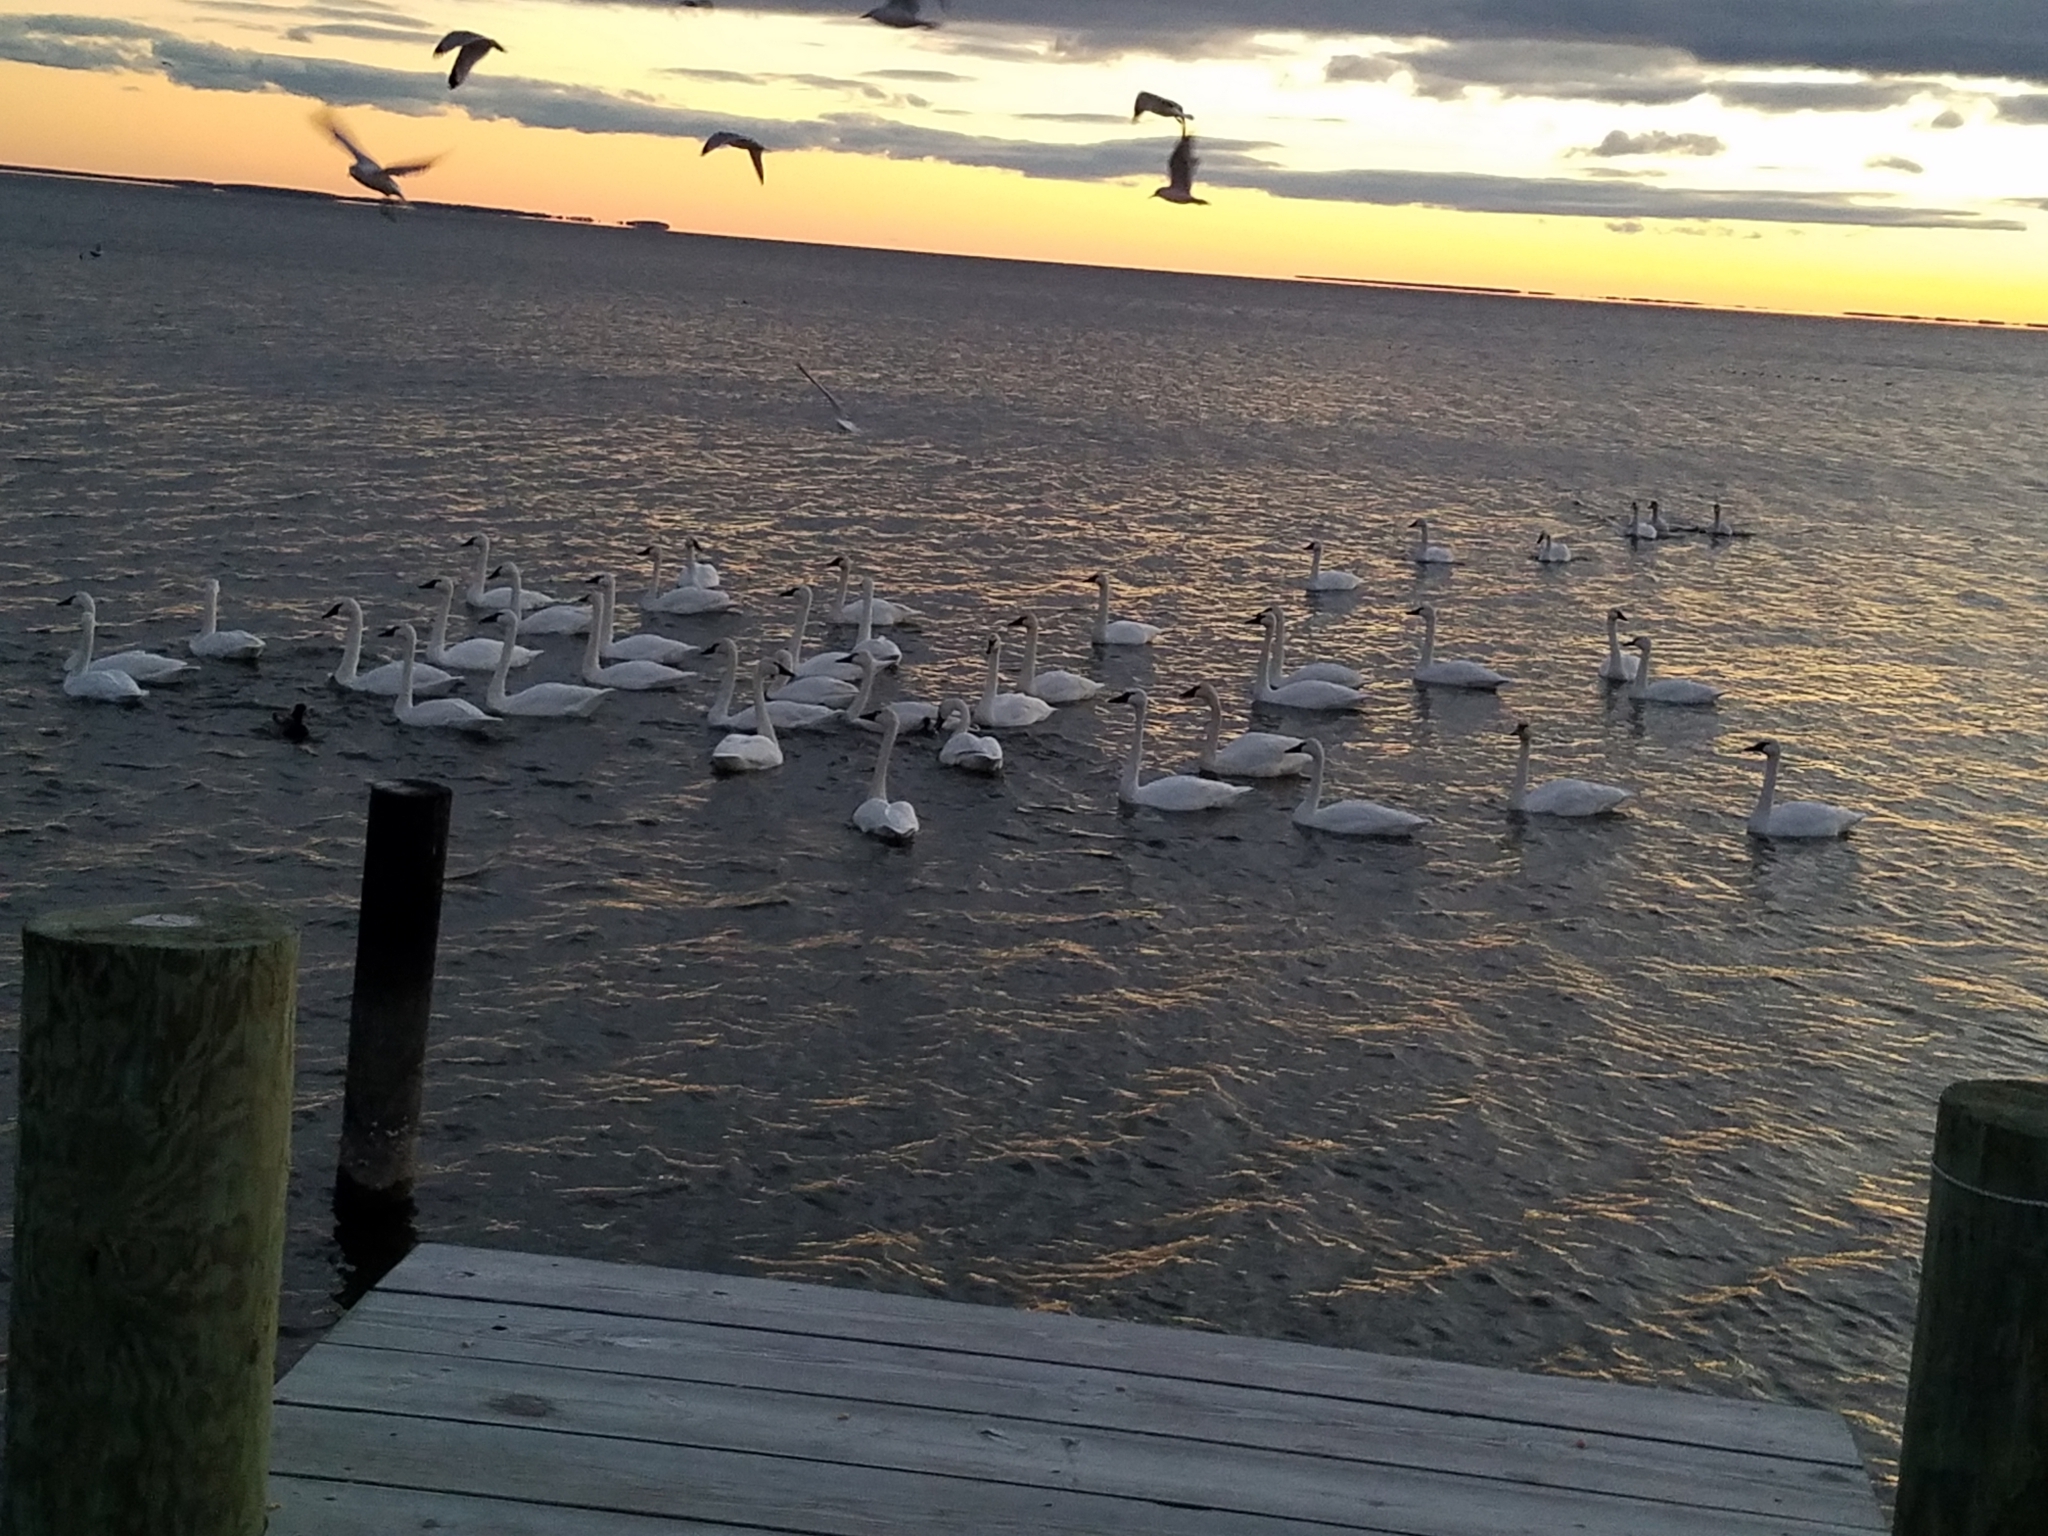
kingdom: Animalia
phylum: Chordata
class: Aves
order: Anseriformes
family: Anatidae
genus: Cygnus
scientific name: Cygnus columbianus
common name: Tundra swan
